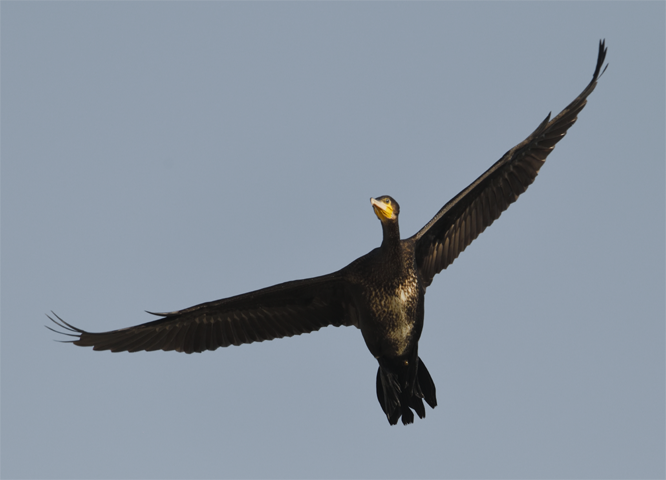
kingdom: Animalia
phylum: Chordata
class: Aves
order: Suliformes
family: Phalacrocoracidae
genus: Phalacrocorax
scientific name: Phalacrocorax carbo
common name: Great cormorant
